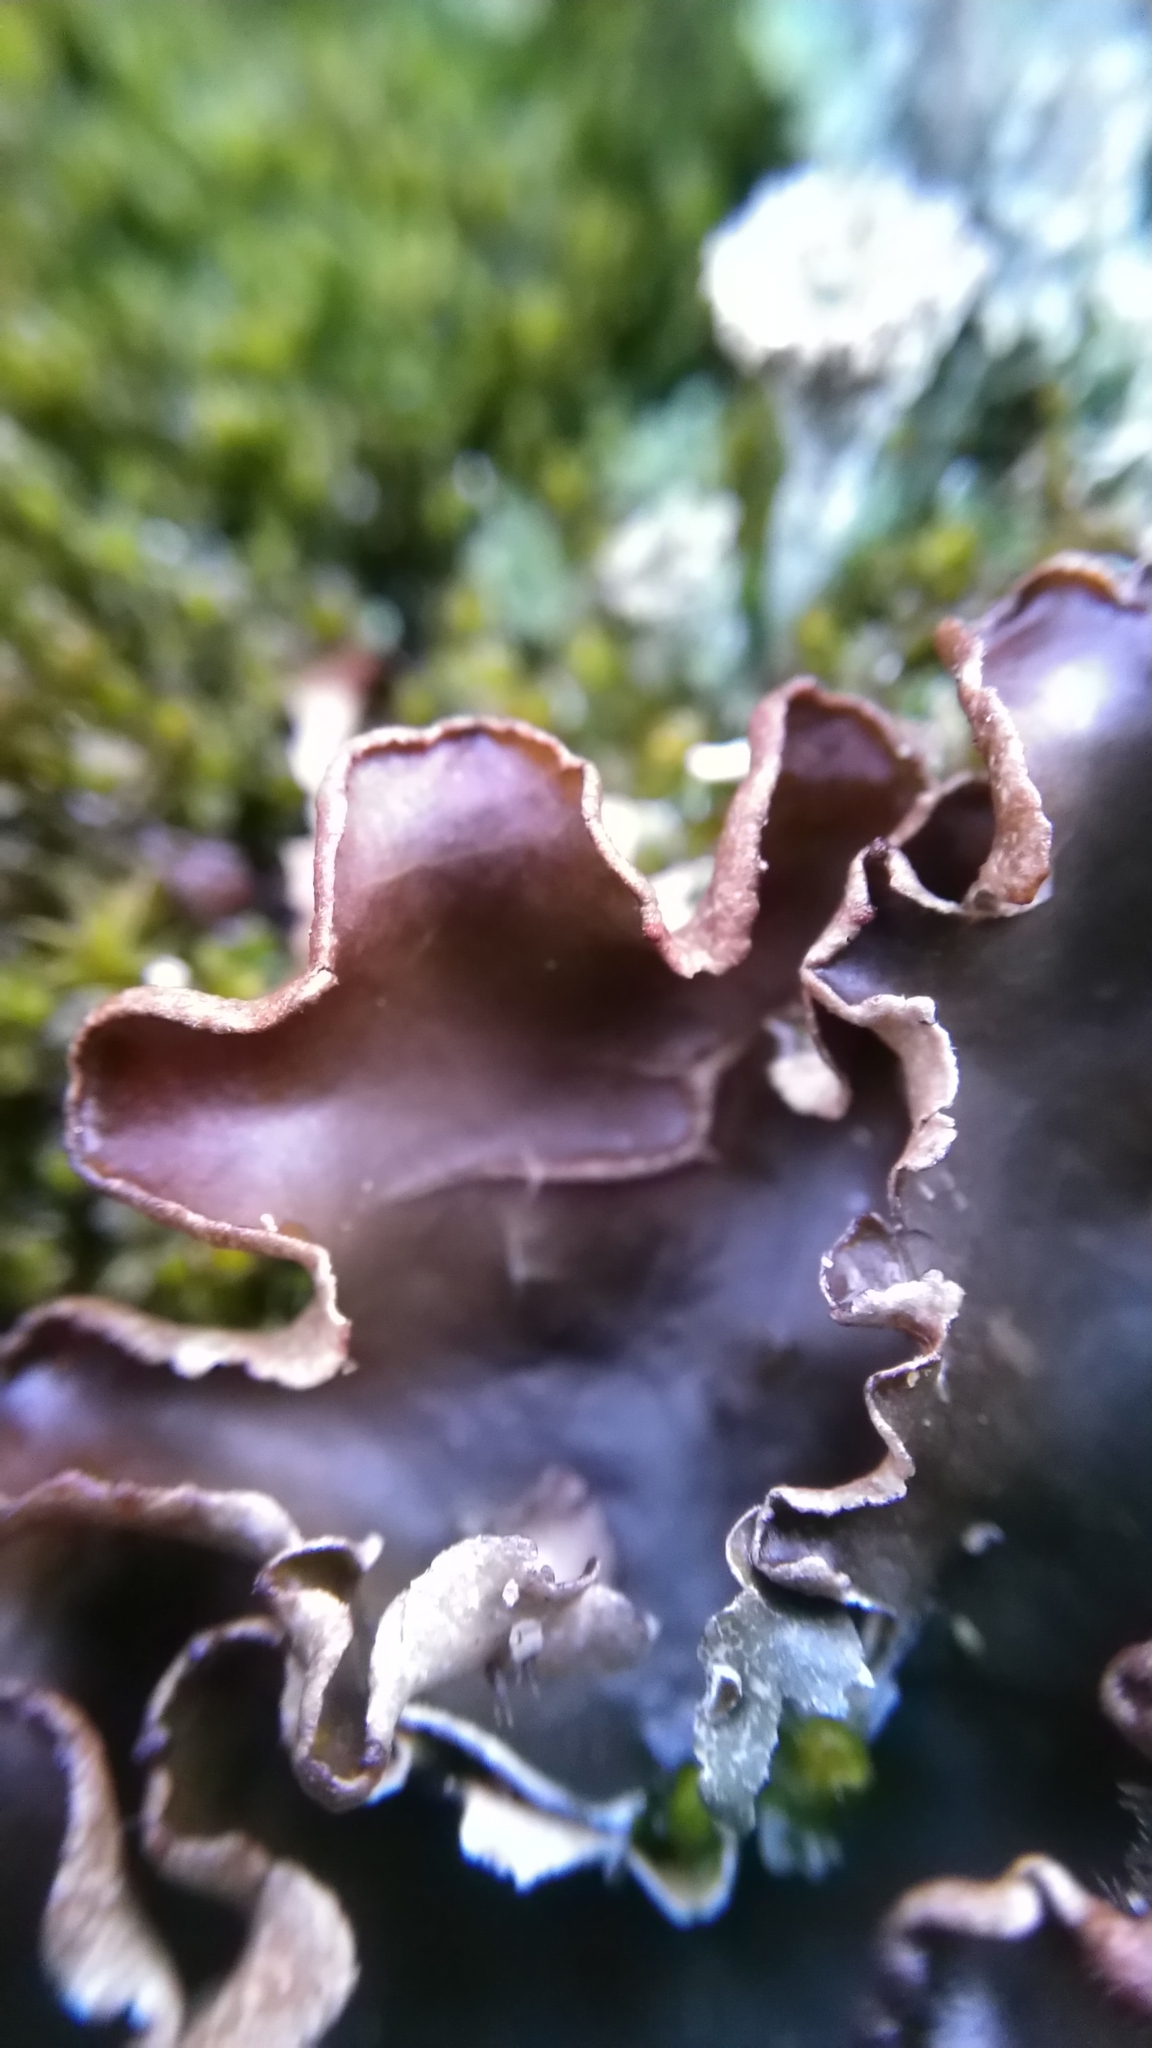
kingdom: Fungi
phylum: Ascomycota
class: Lecanoromycetes
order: Peltigerales
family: Peltigeraceae
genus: Peltigera
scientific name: Peltigera neckeri
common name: Blacksaddle pelt lichen
